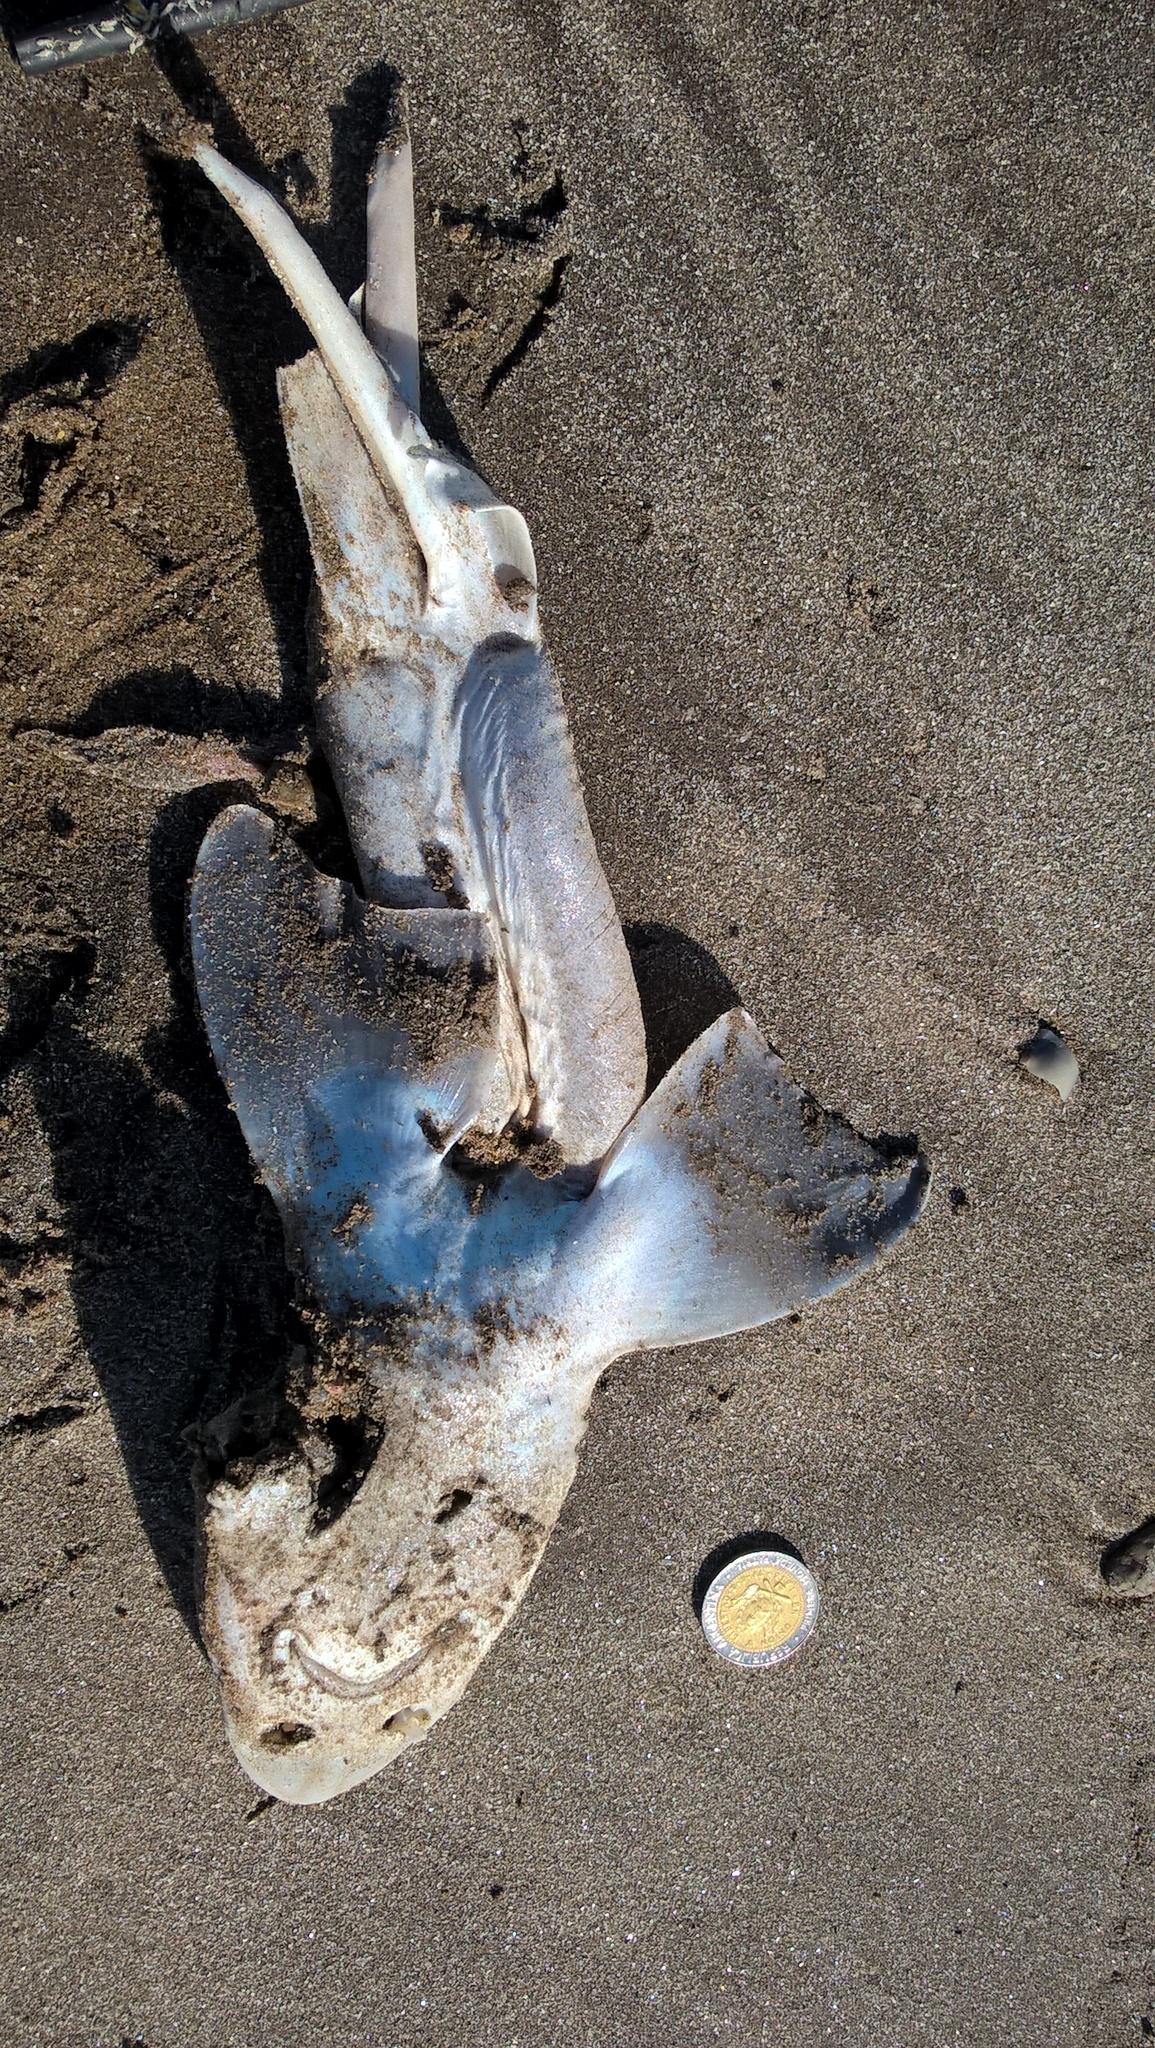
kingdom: Animalia
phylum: Chordata
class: Elasmobranchii
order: Carcharhiniformes
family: Triakidae
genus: Mustelus
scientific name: Mustelus schmitti
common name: Narrownose smooth-hound
